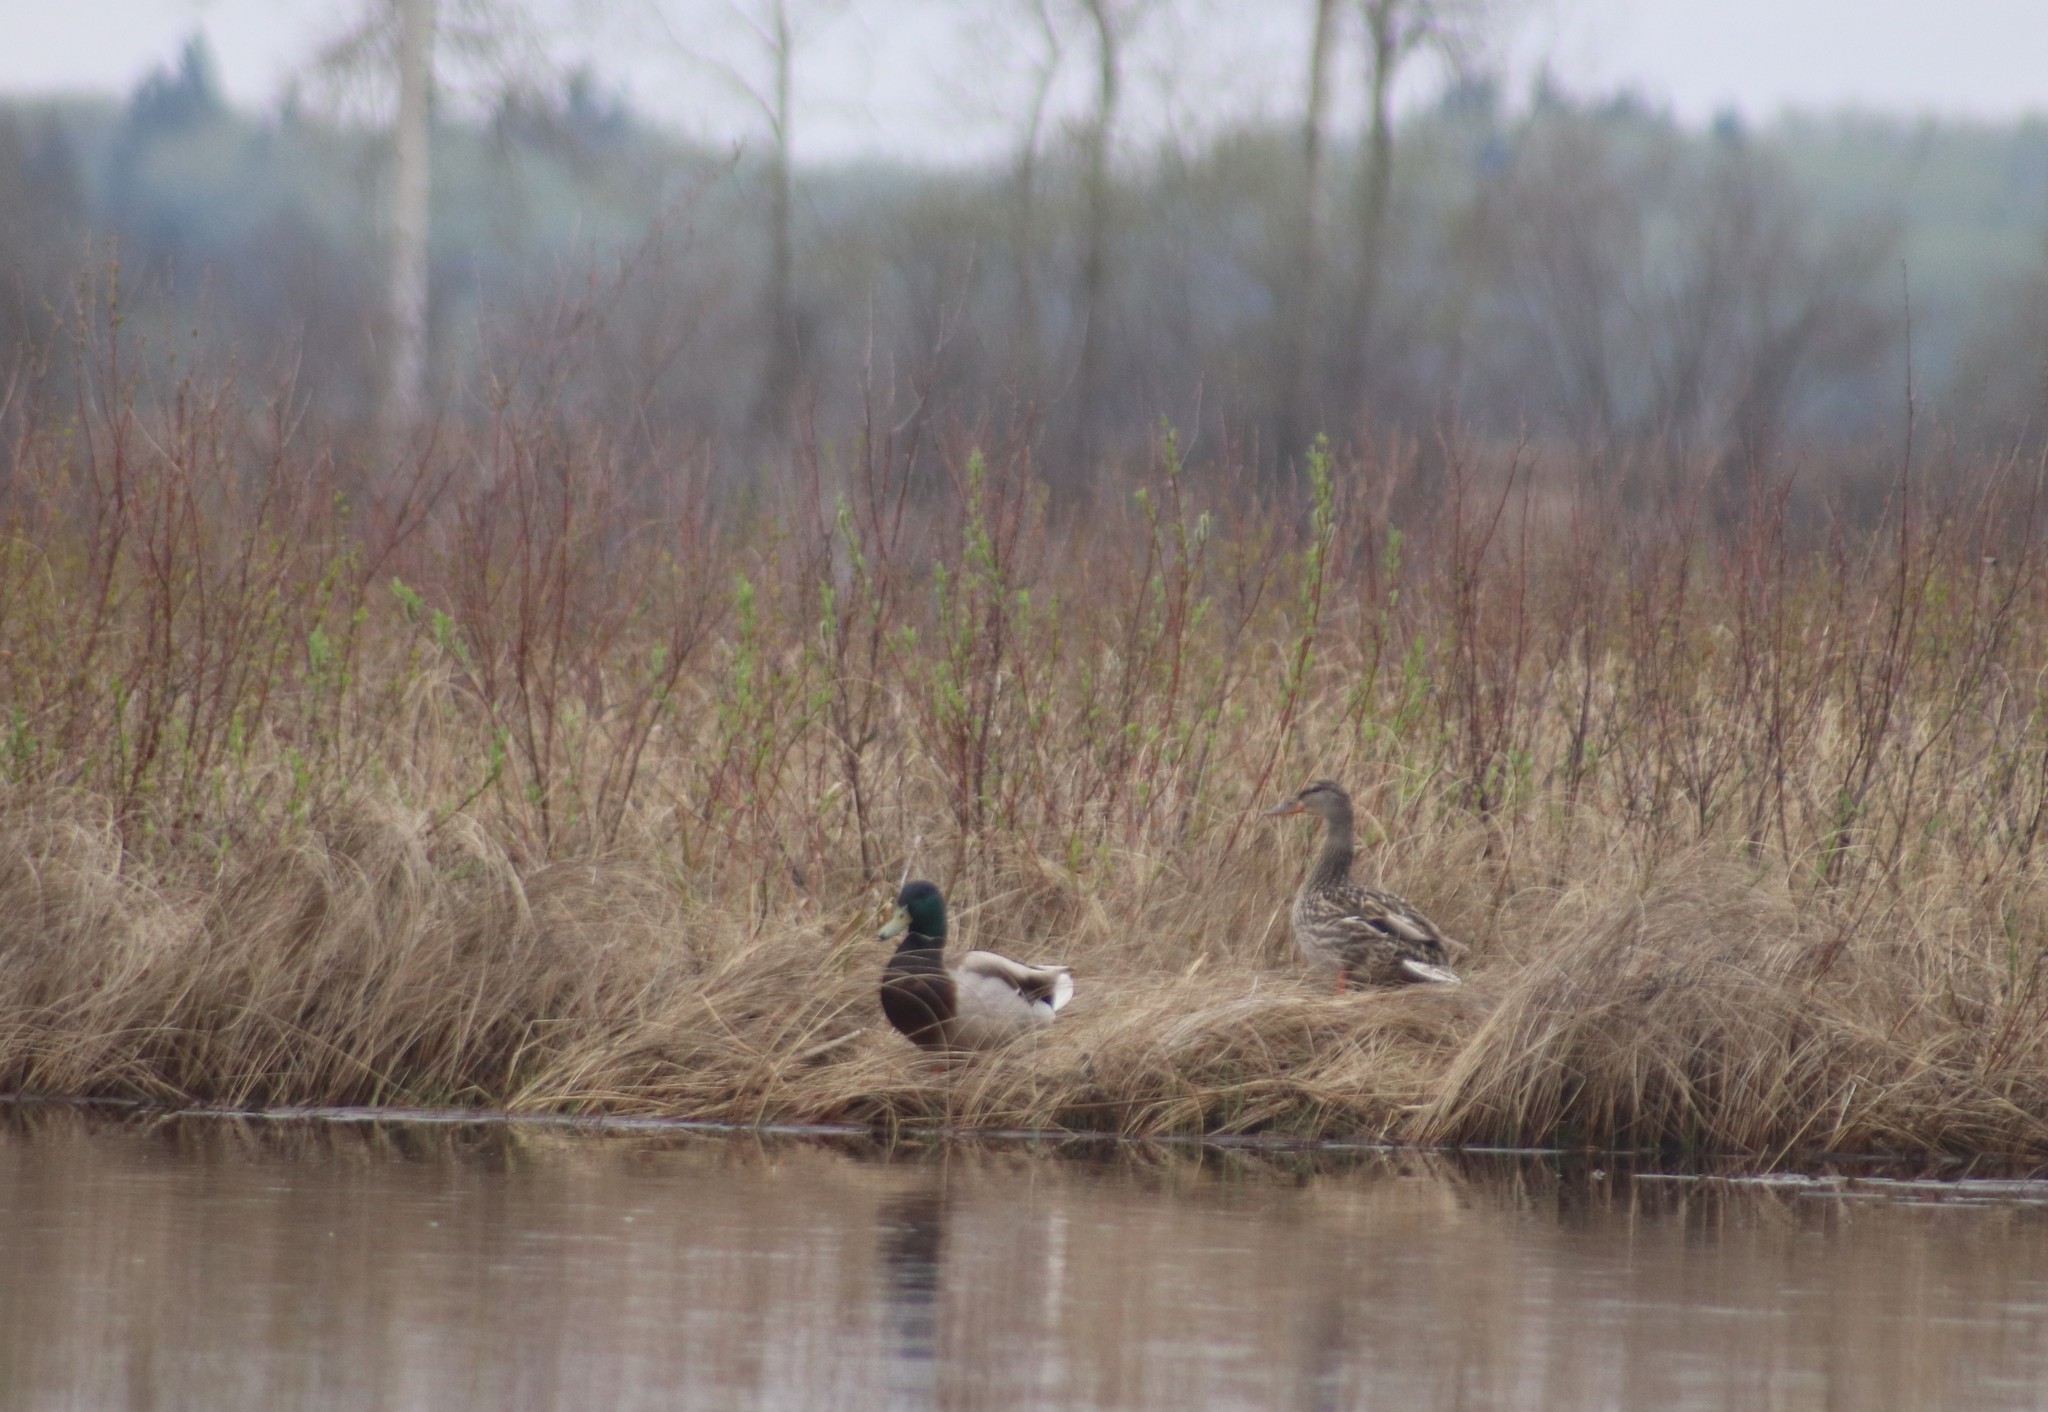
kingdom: Animalia
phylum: Chordata
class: Aves
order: Anseriformes
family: Anatidae
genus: Anas
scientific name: Anas platyrhynchos
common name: Mallard
